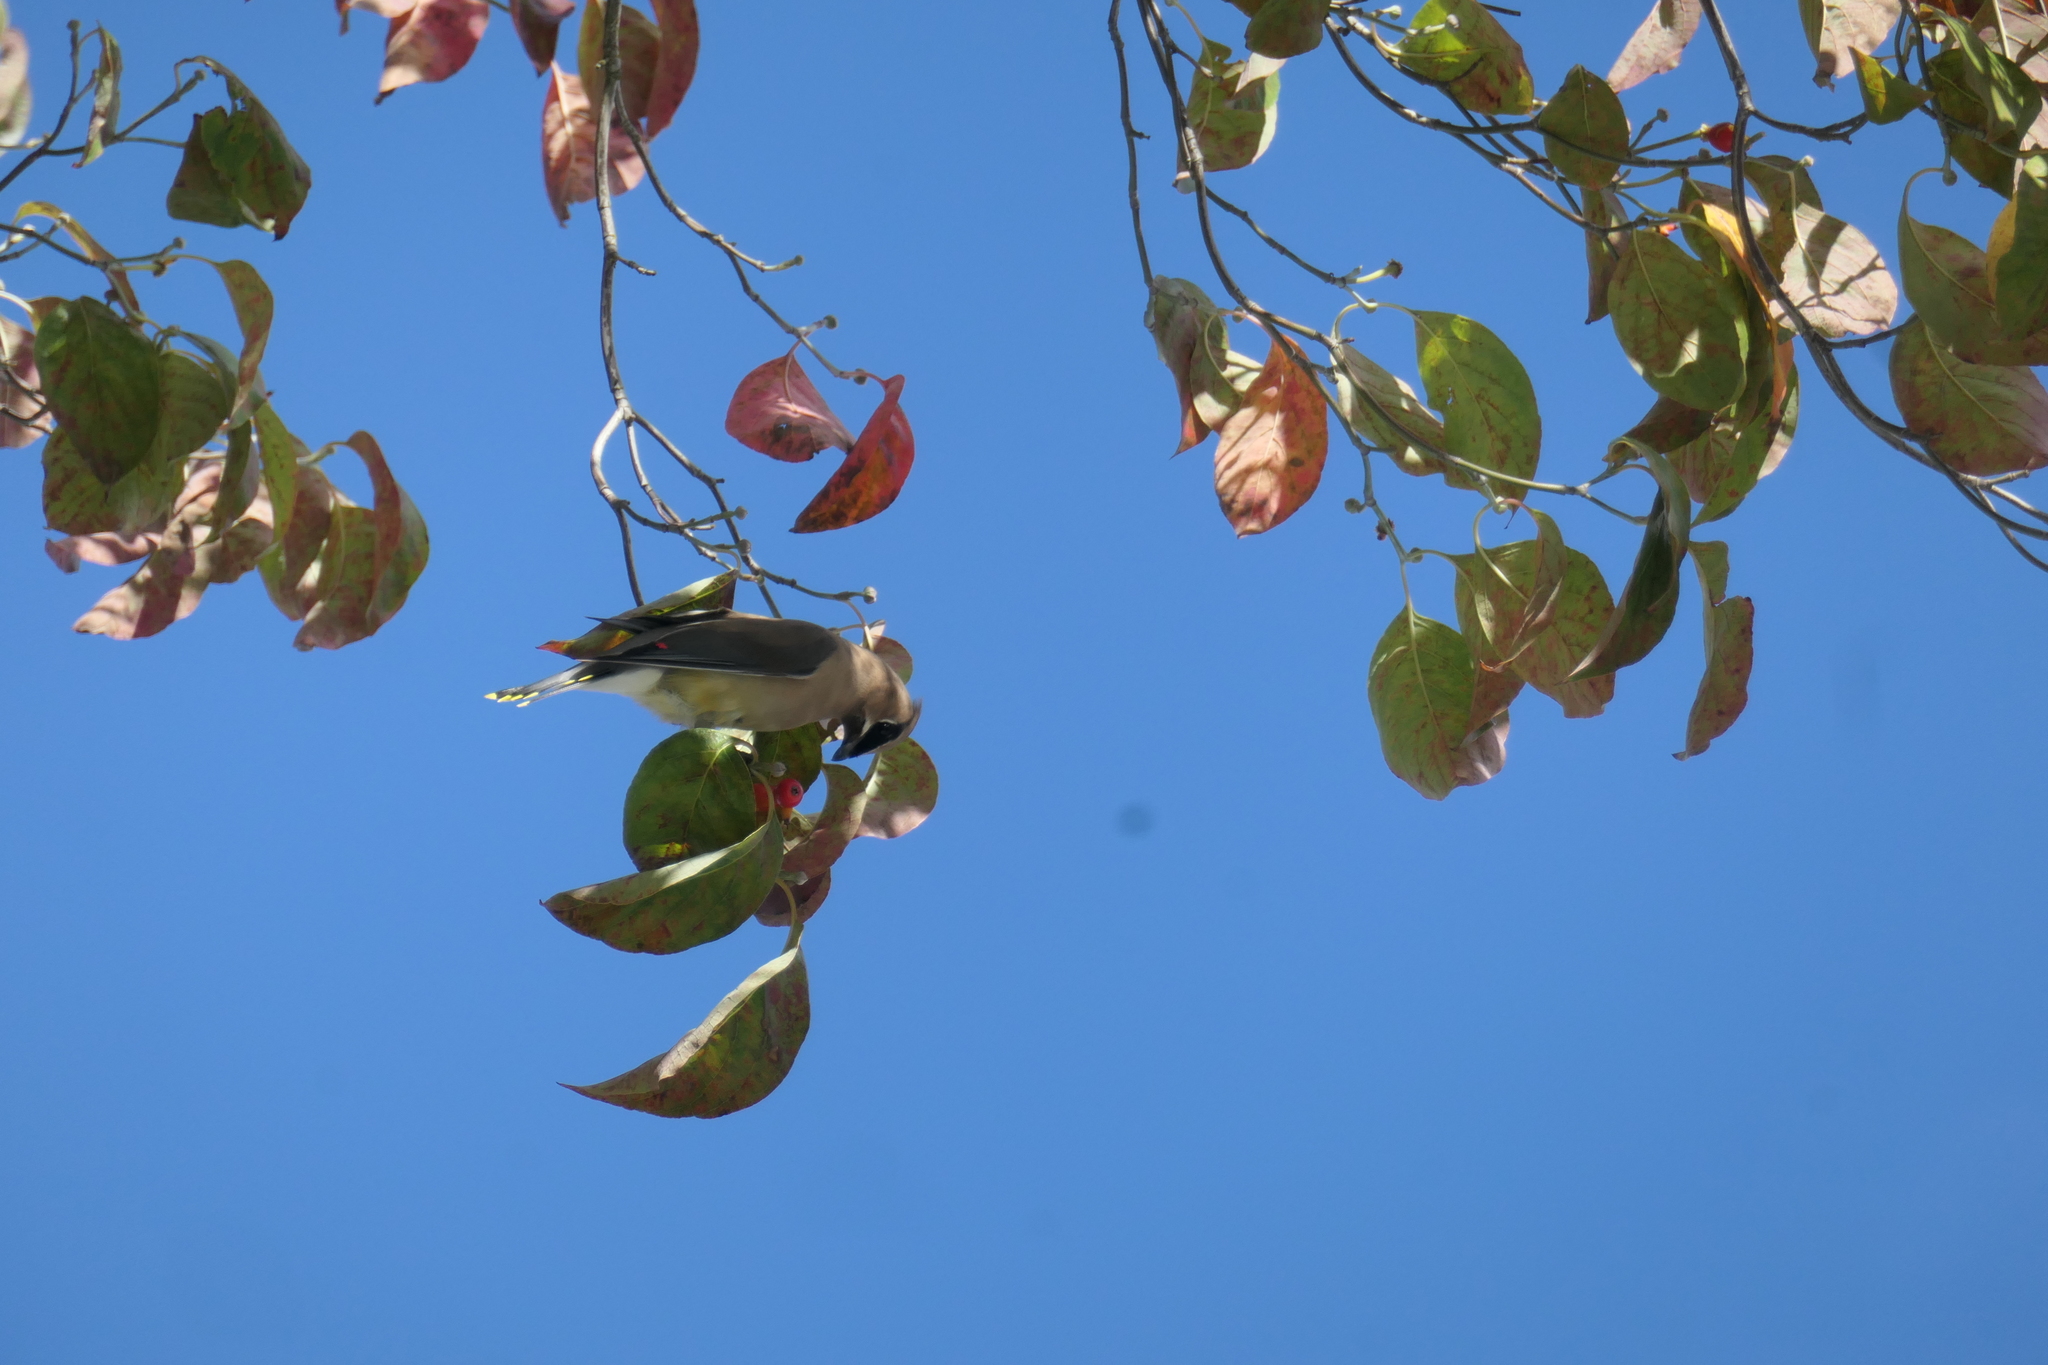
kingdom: Animalia
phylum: Chordata
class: Aves
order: Passeriformes
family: Bombycillidae
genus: Bombycilla
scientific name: Bombycilla cedrorum
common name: Cedar waxwing
